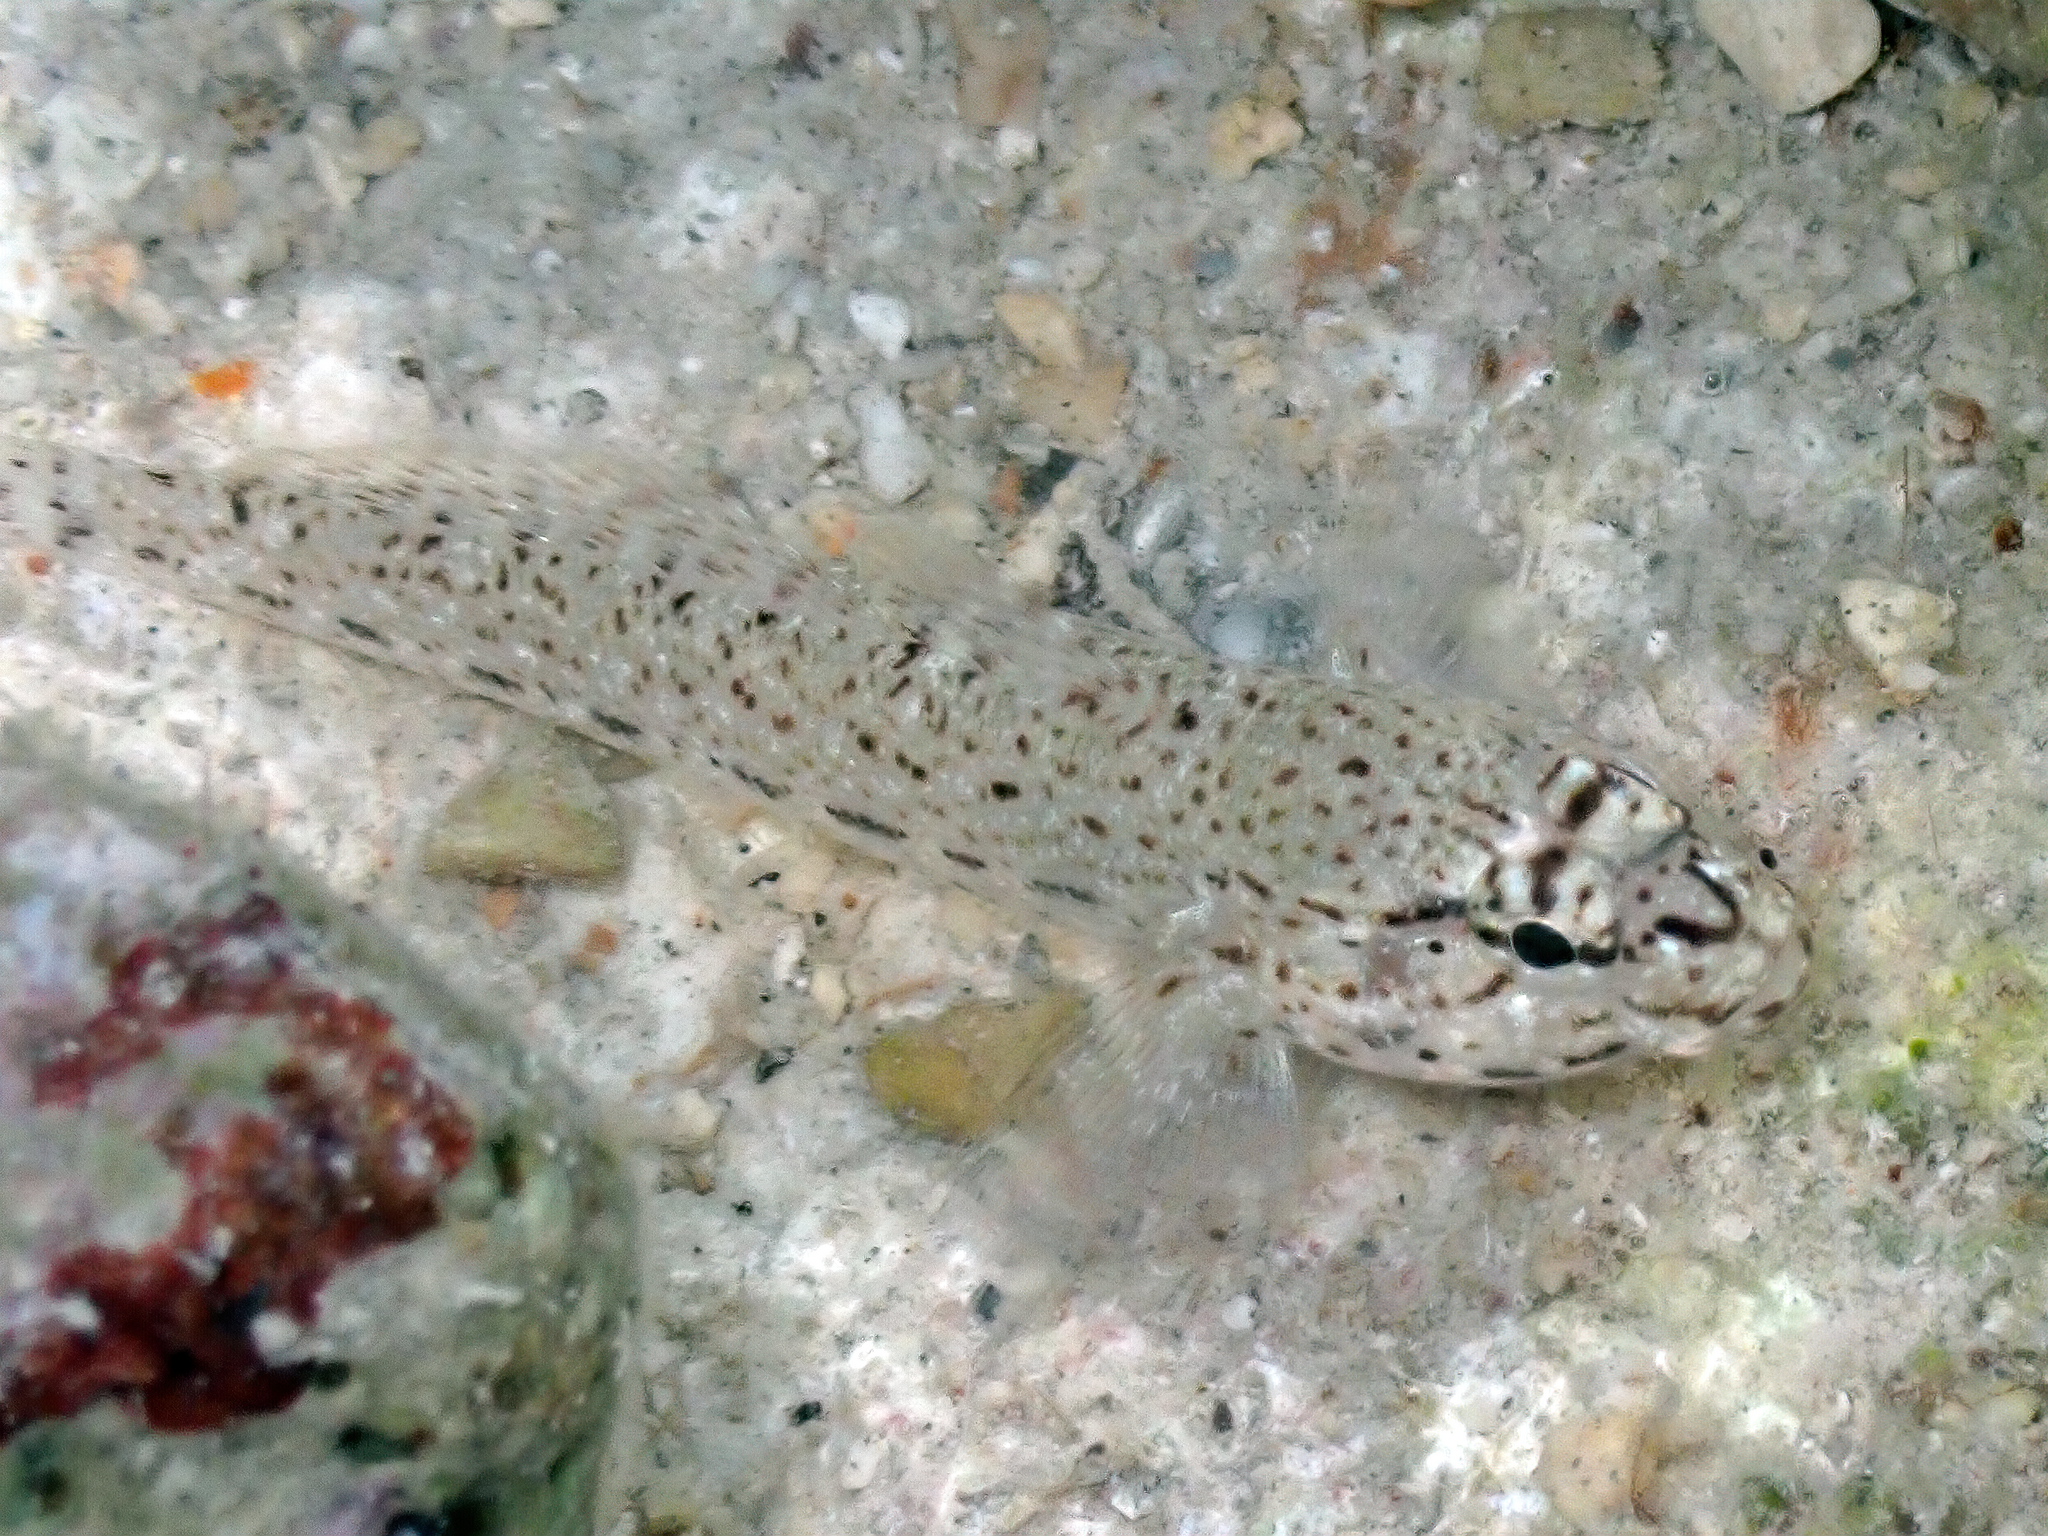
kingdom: Animalia
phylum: Chordata
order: Perciformes
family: Gobiidae
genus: Gobius
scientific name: Gobius incognitus
